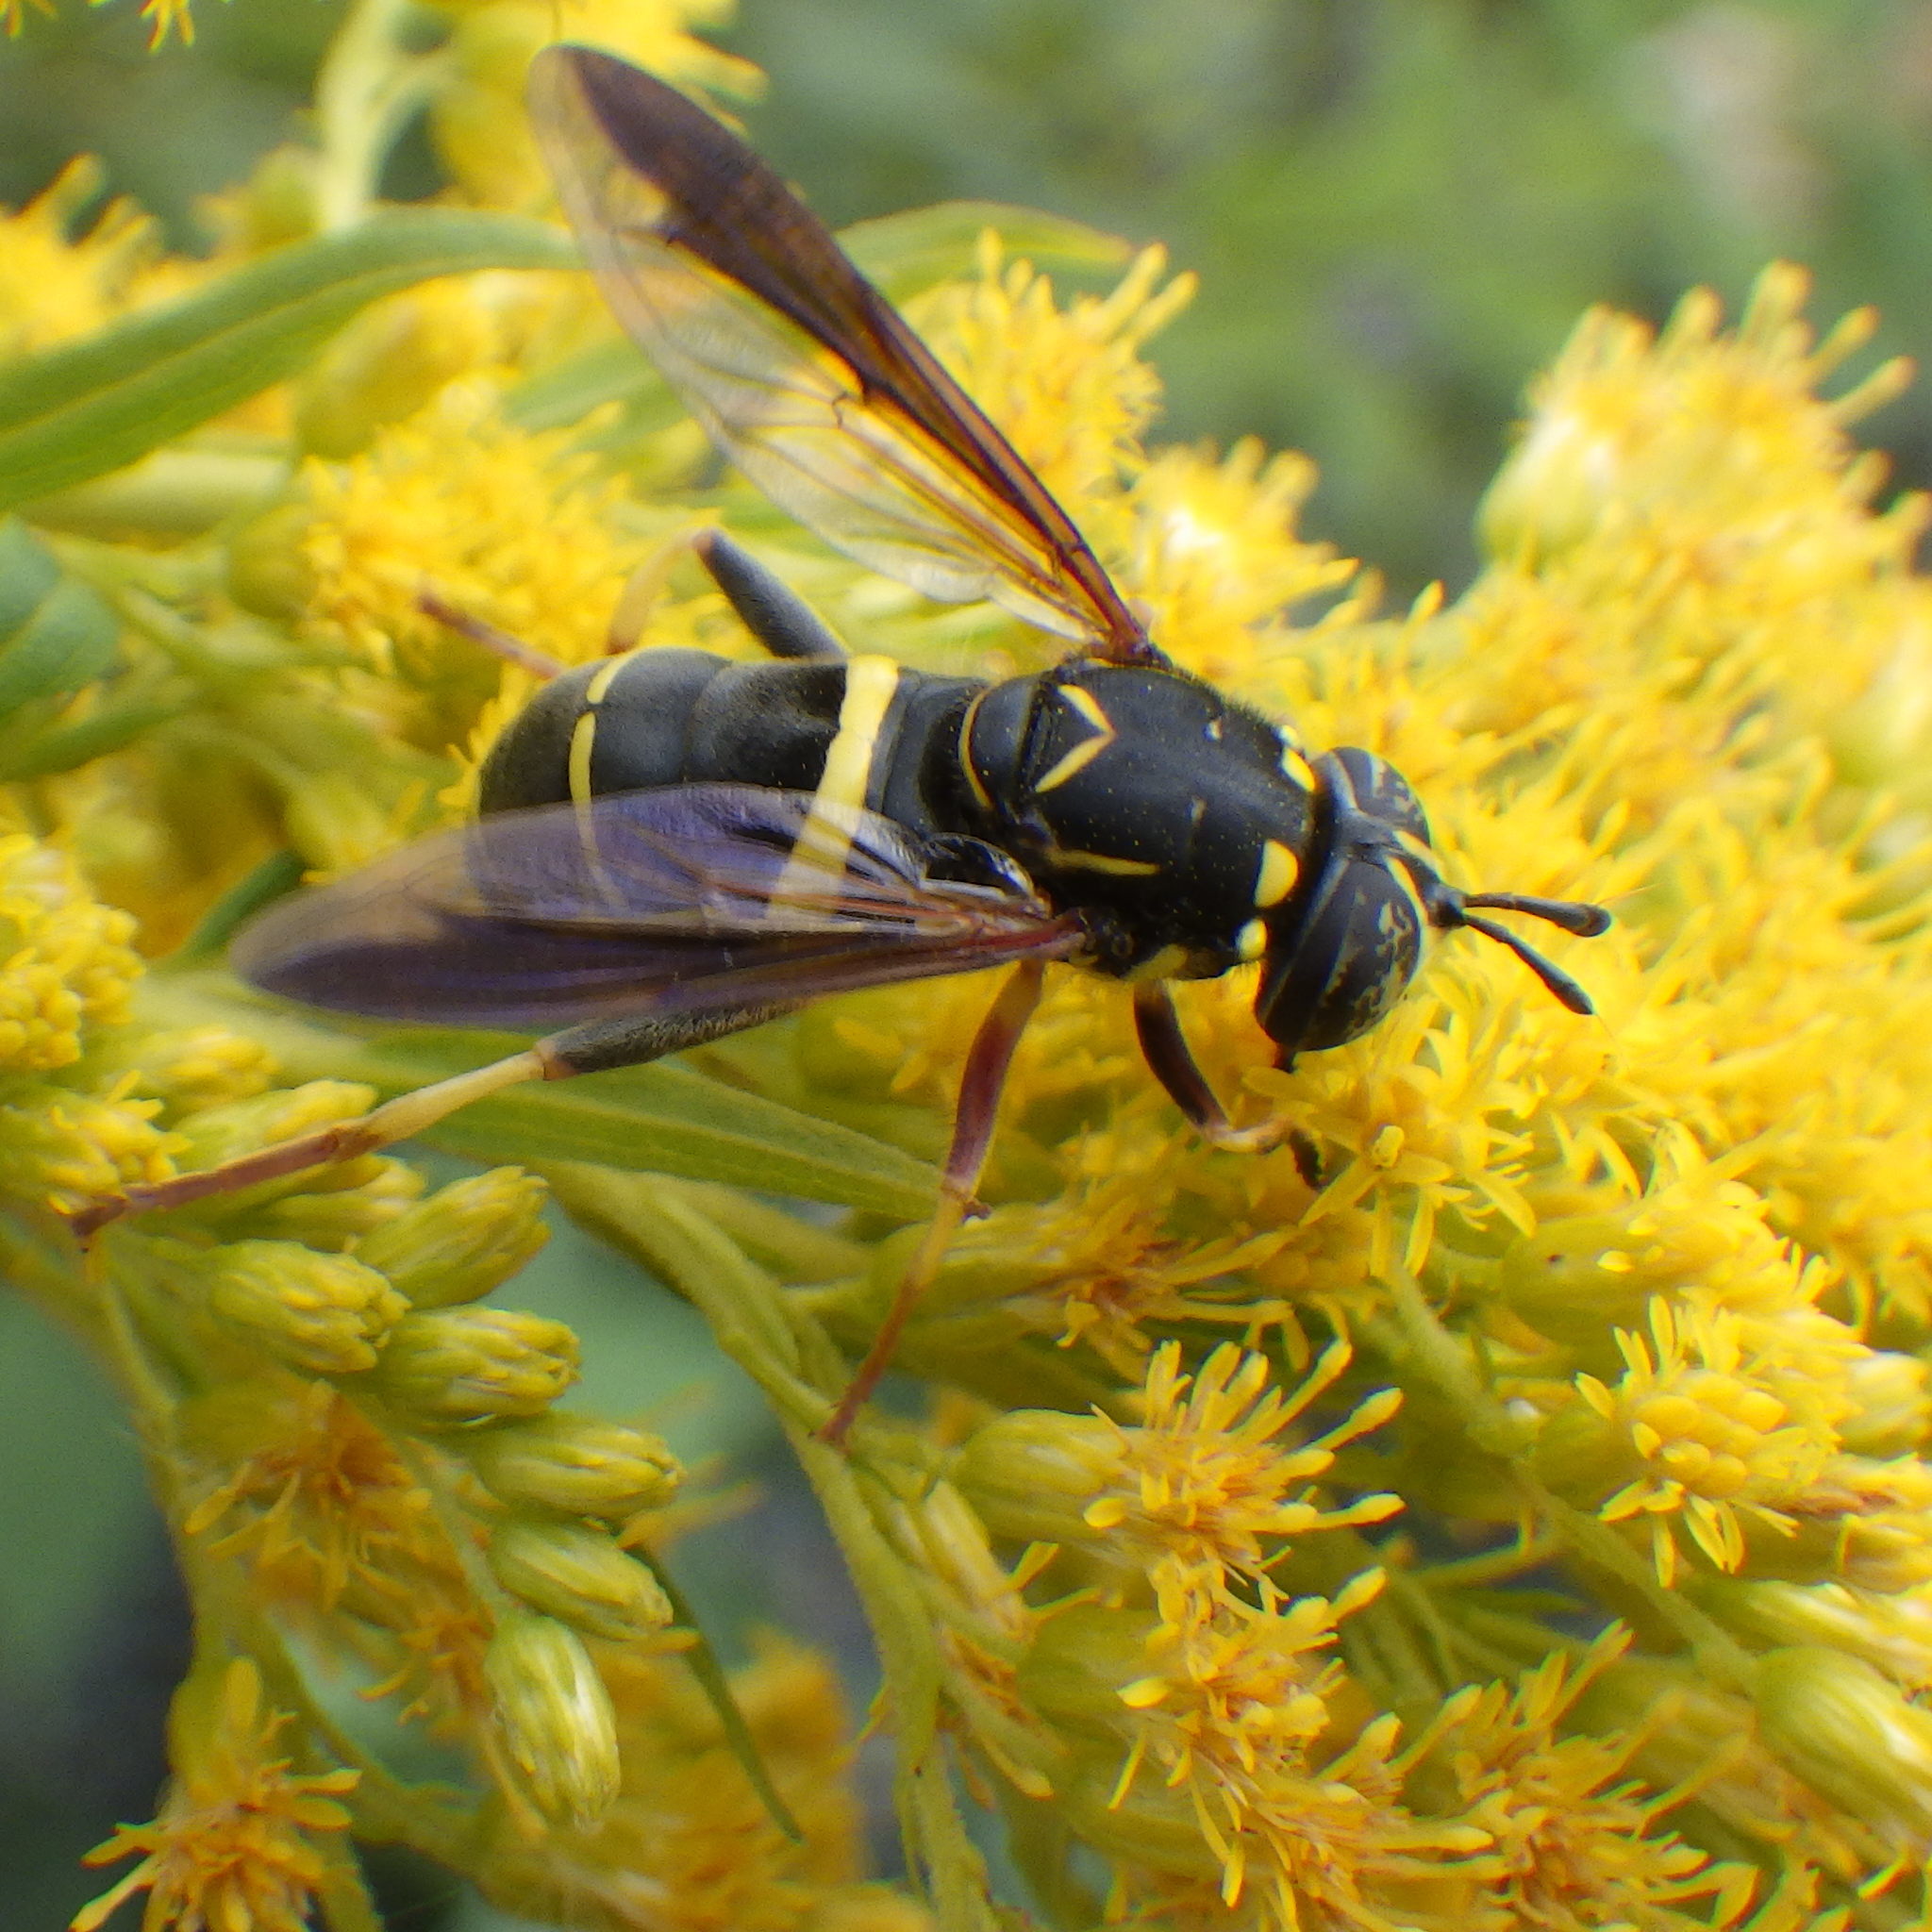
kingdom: Animalia
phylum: Arthropoda
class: Insecta
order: Diptera
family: Syrphidae
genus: Spilomyia
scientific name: Spilomyia sayi
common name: Four-lined hornet fly
